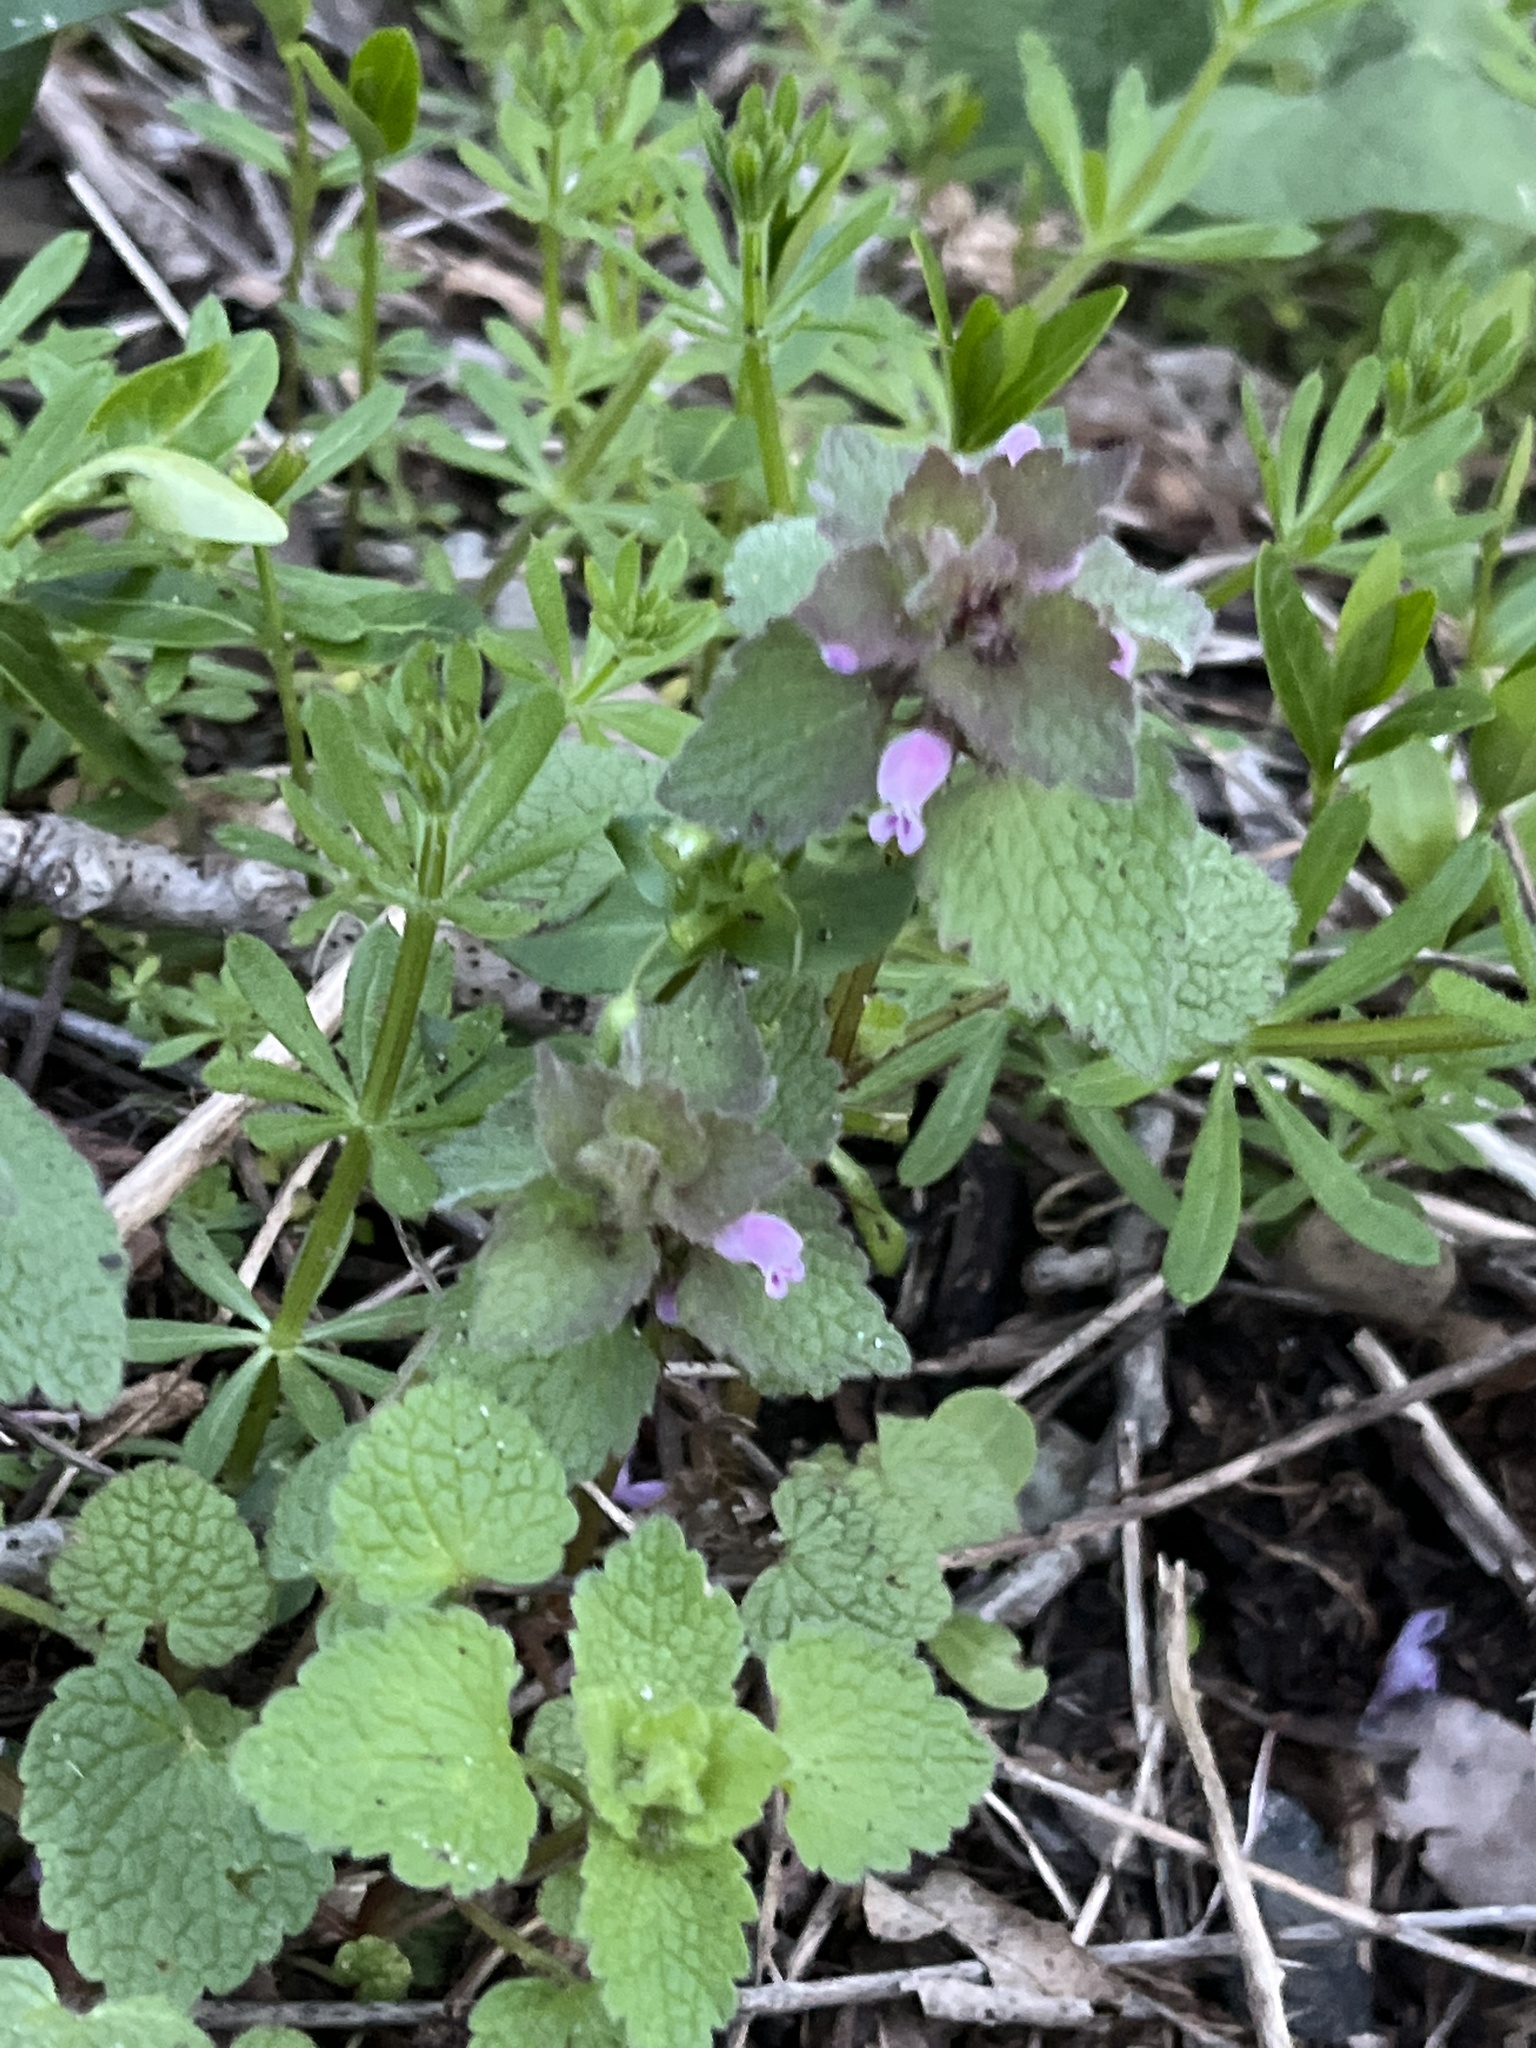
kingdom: Plantae
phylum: Tracheophyta
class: Magnoliopsida
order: Lamiales
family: Lamiaceae
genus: Lamium
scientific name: Lamium purpureum
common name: Red dead-nettle
